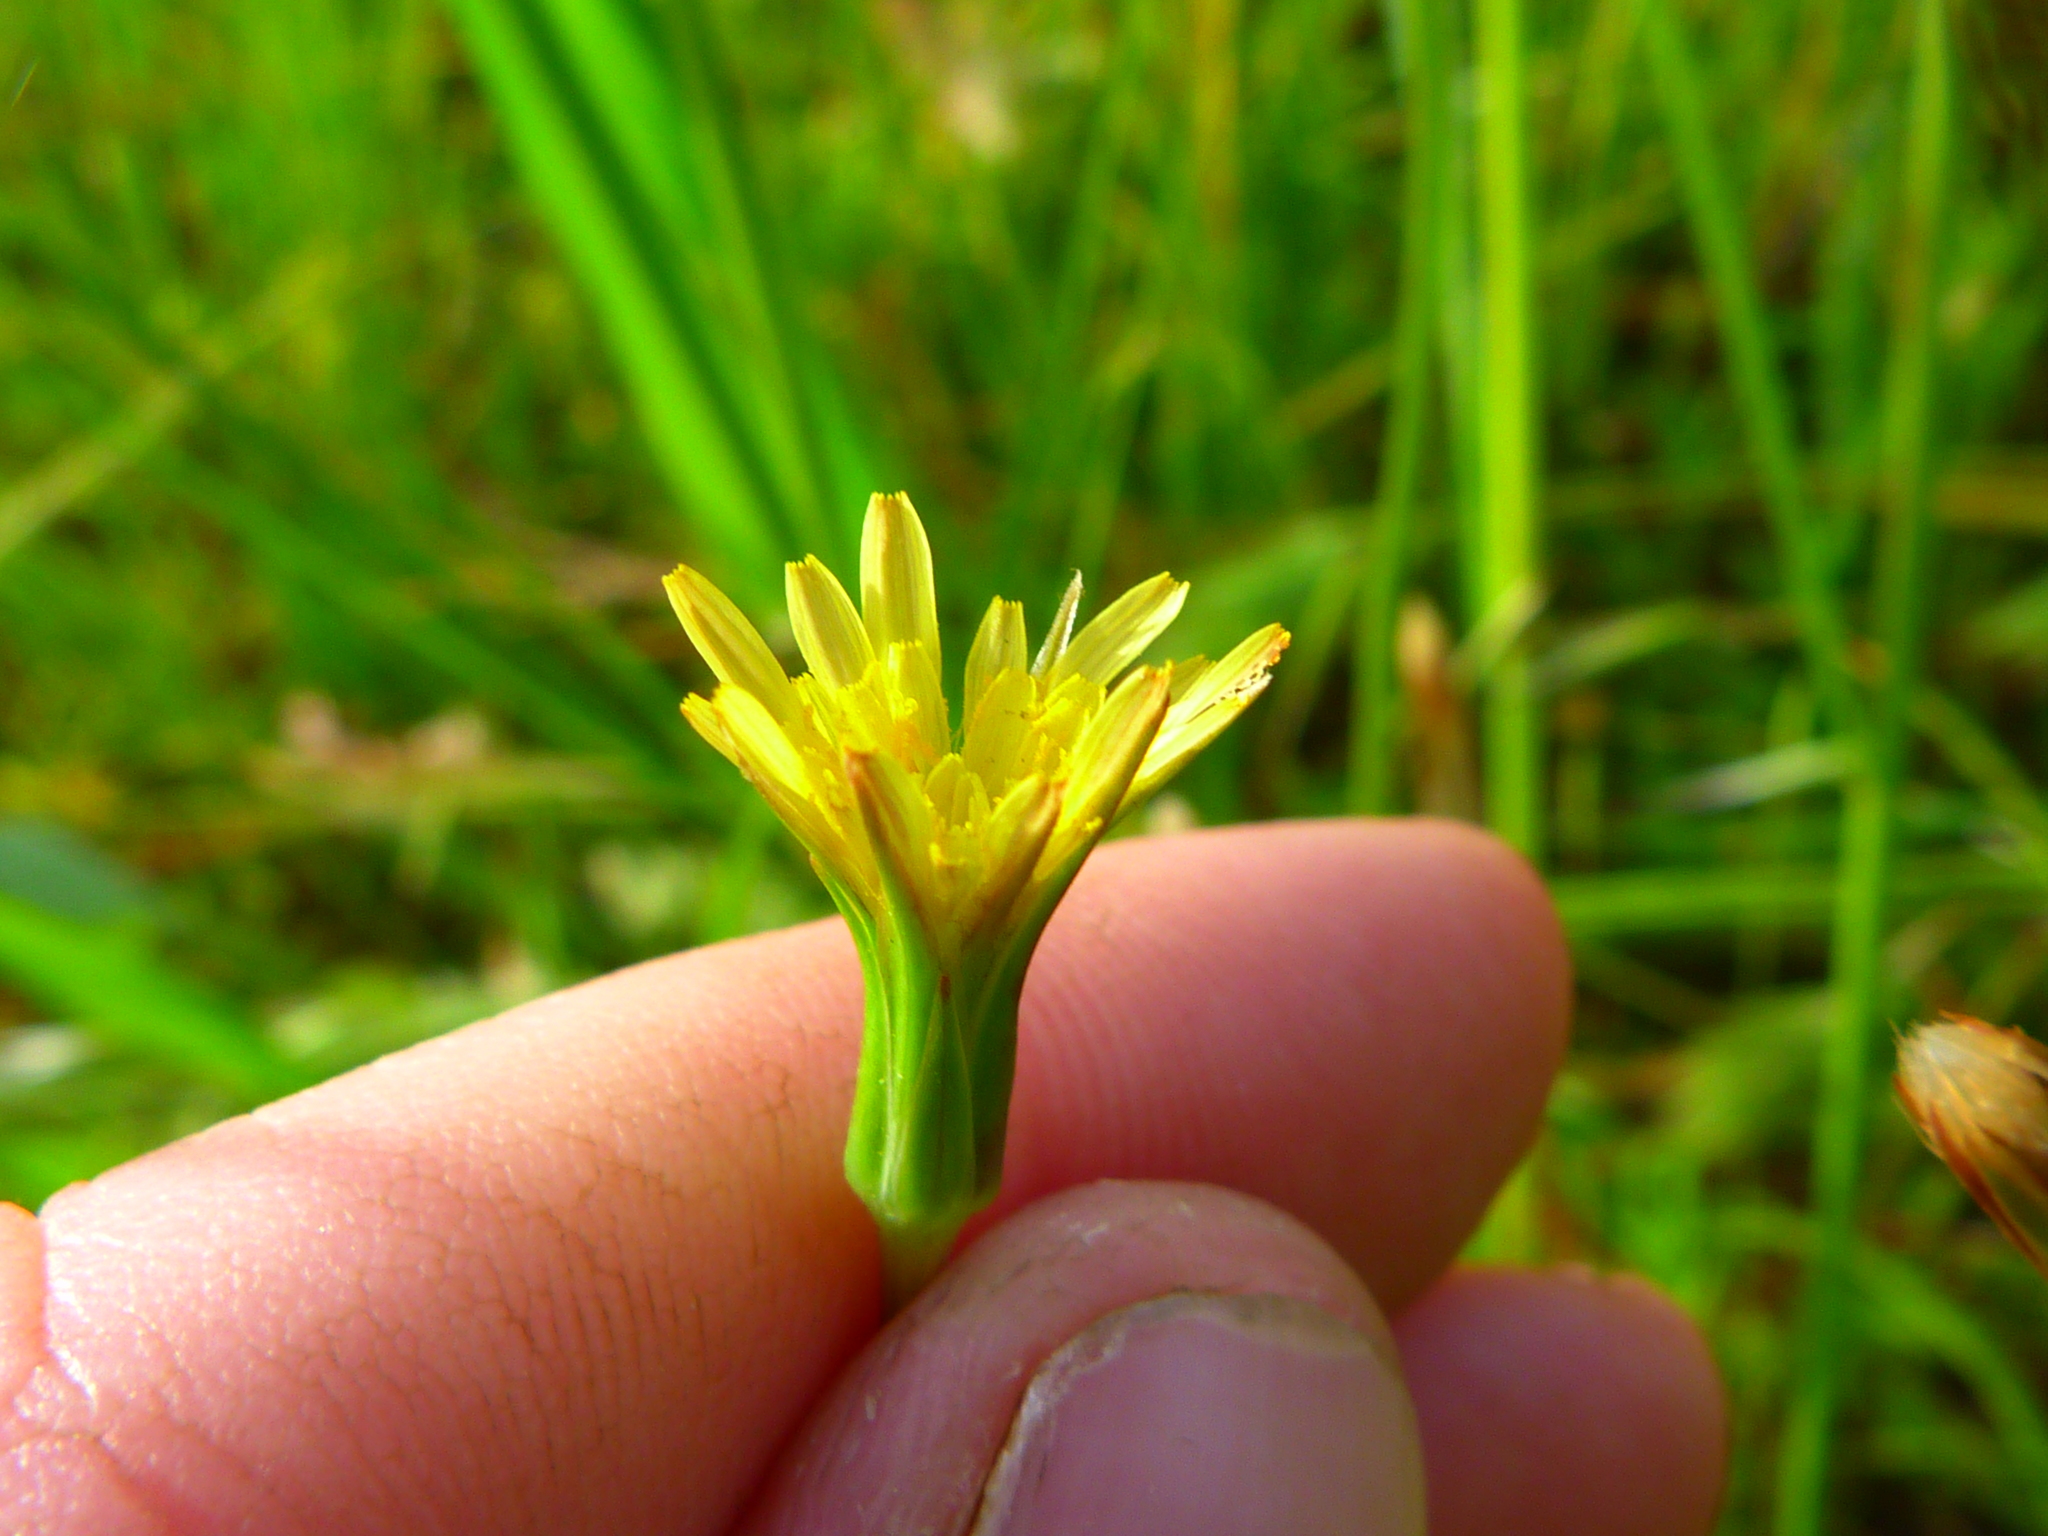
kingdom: Plantae
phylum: Tracheophyta
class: Magnoliopsida
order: Asterales
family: Asteraceae
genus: Microseris
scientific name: Microseris lindleyi
